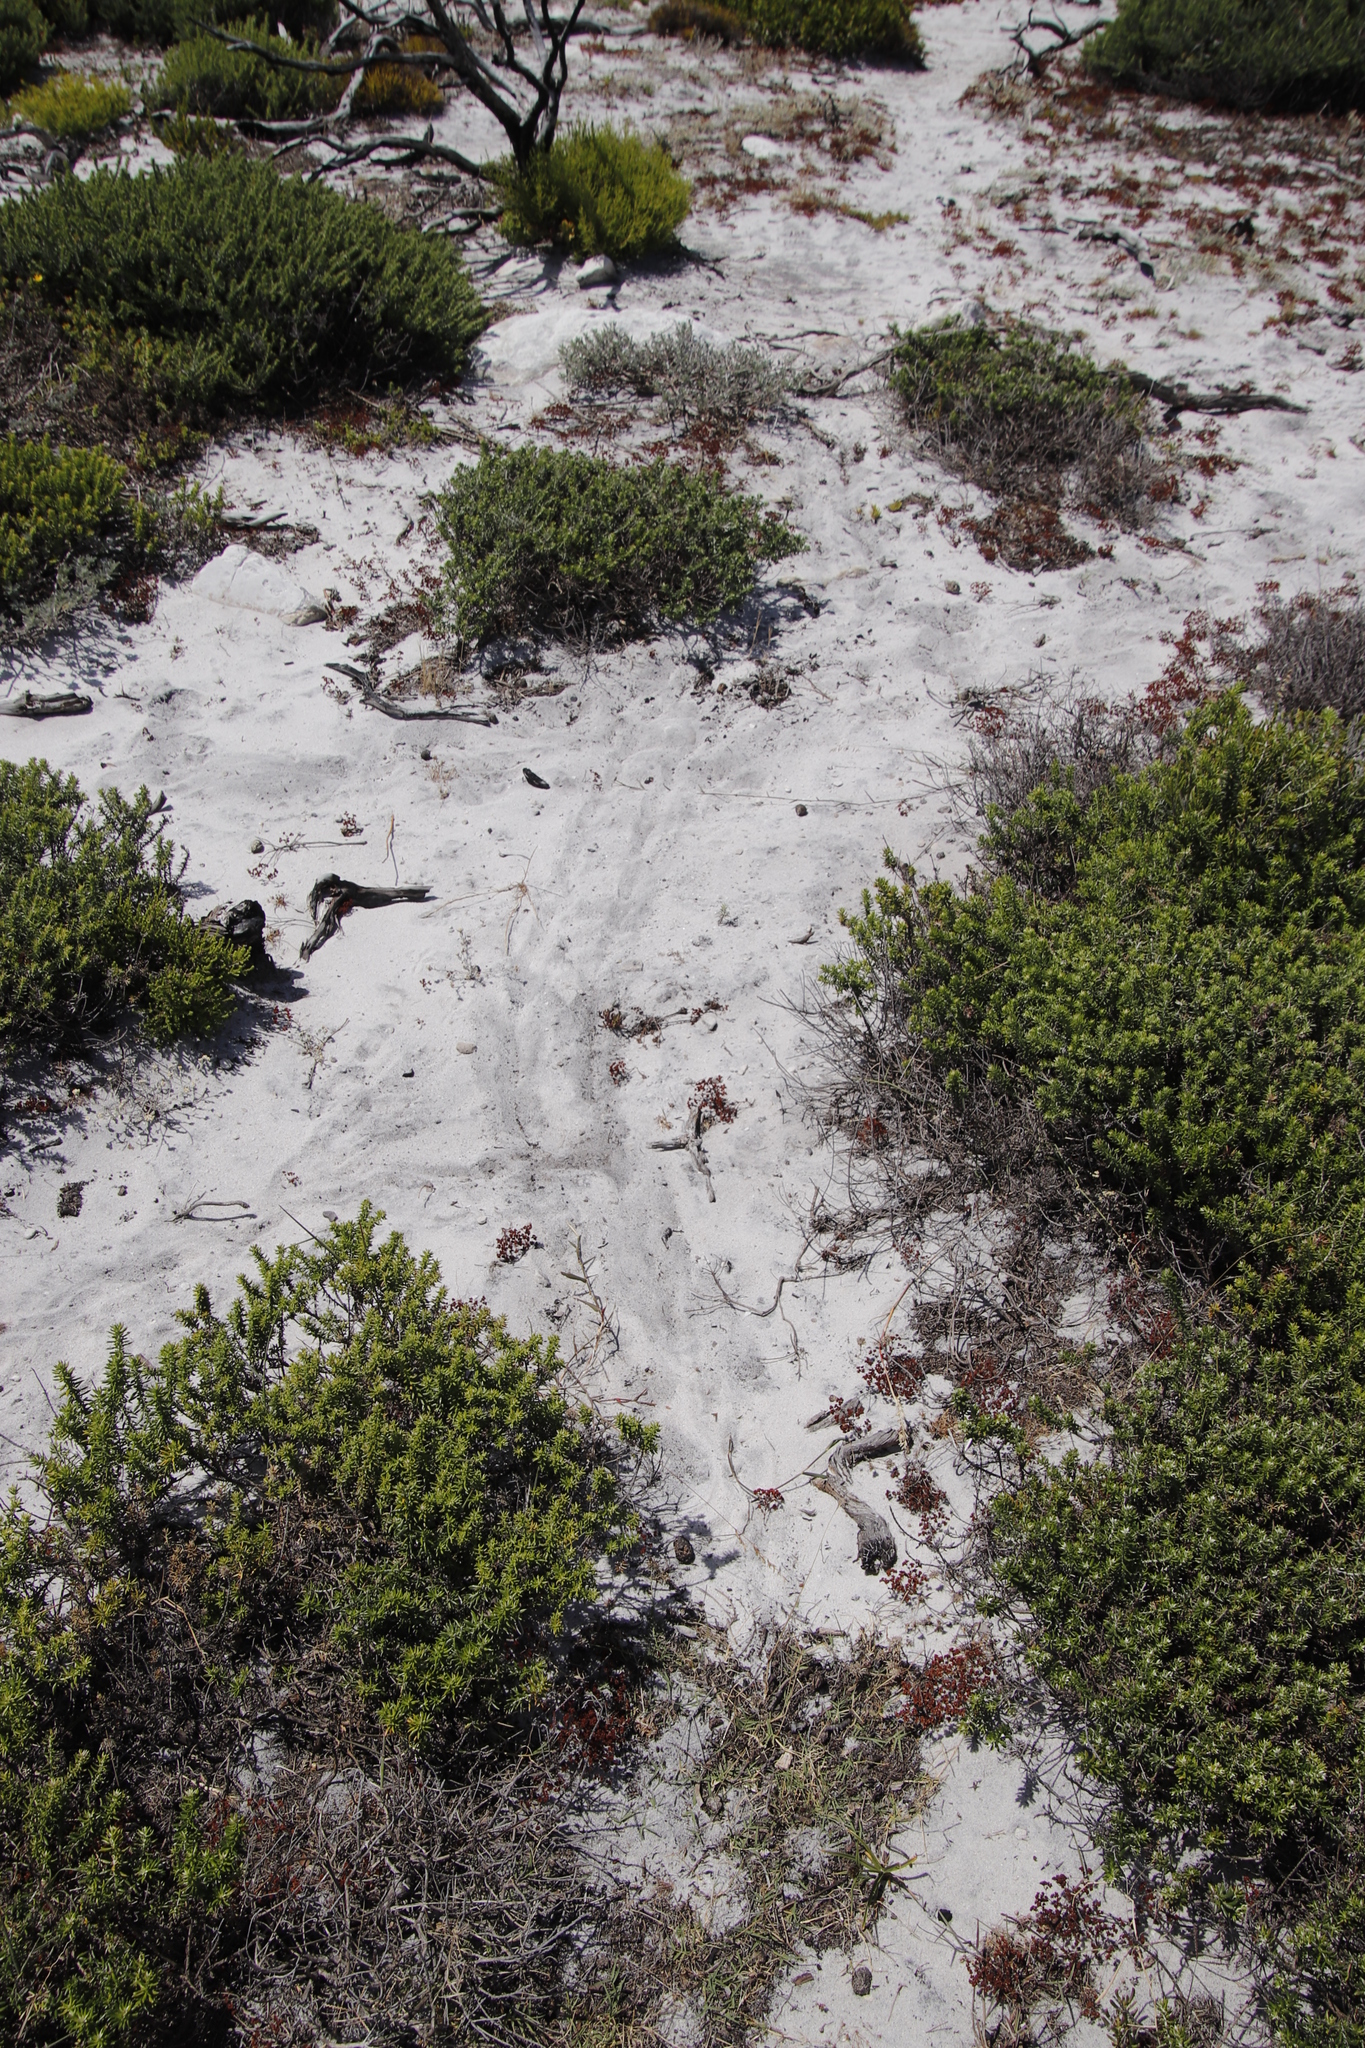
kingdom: Animalia
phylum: Chordata
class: Testudines
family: Testudinidae
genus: Chersina
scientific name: Chersina angulata
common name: South african bowsprit tortoise
